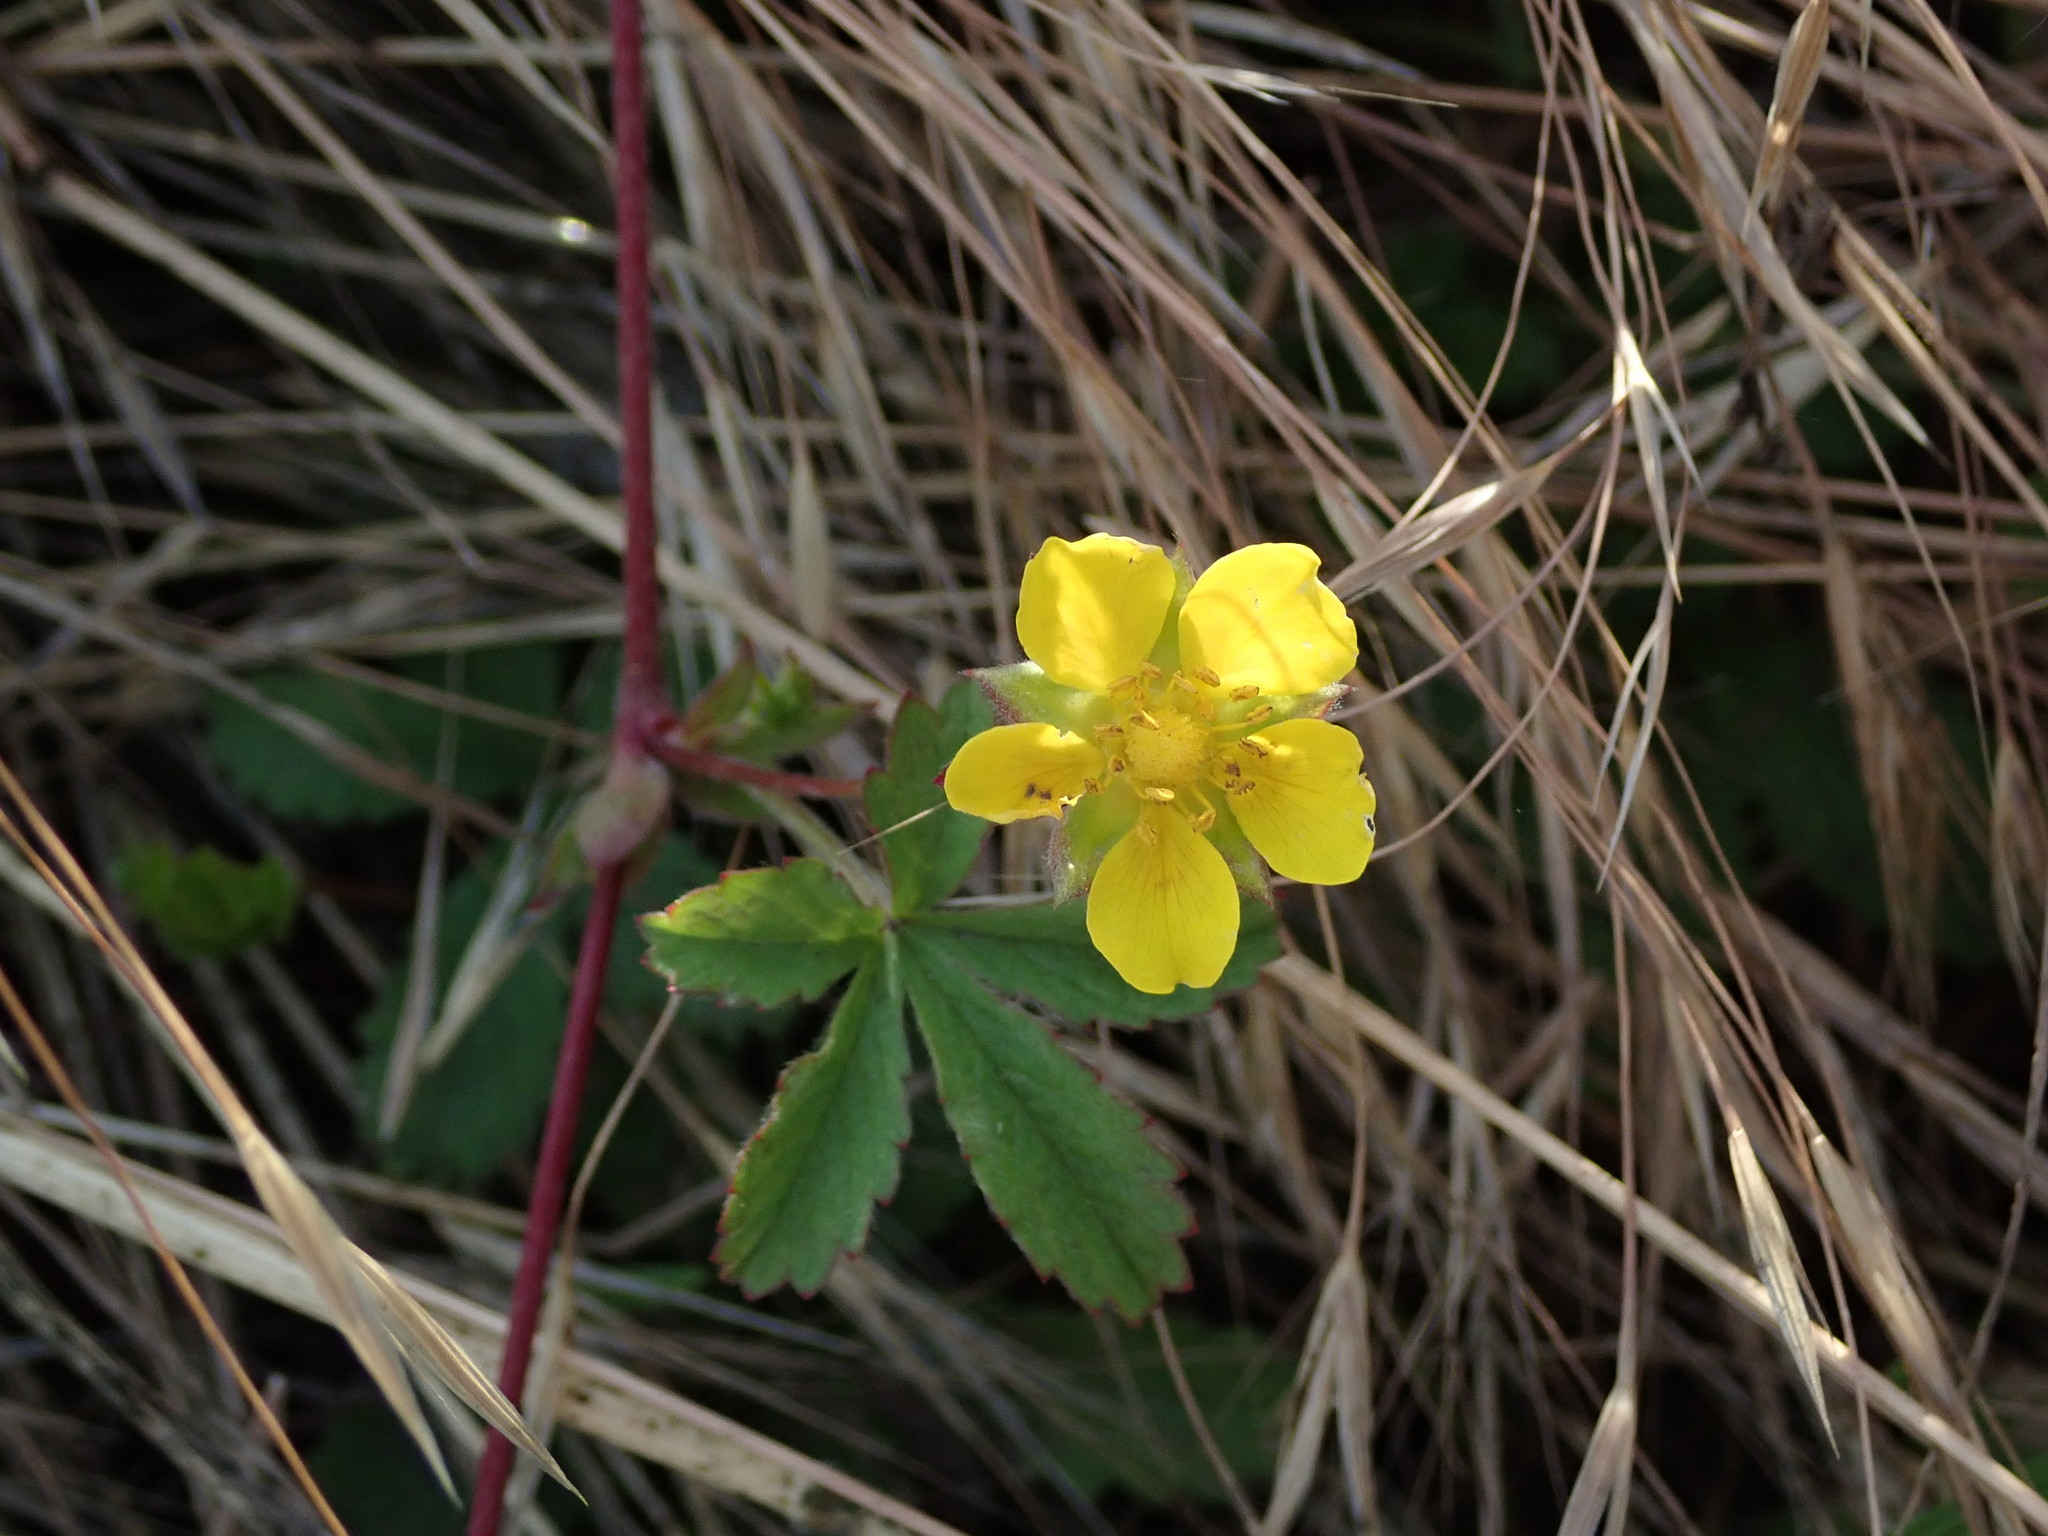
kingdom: Plantae
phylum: Tracheophyta
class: Magnoliopsida
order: Rosales
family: Rosaceae
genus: Potentilla
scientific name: Potentilla reptans
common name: Creeping cinquefoil
